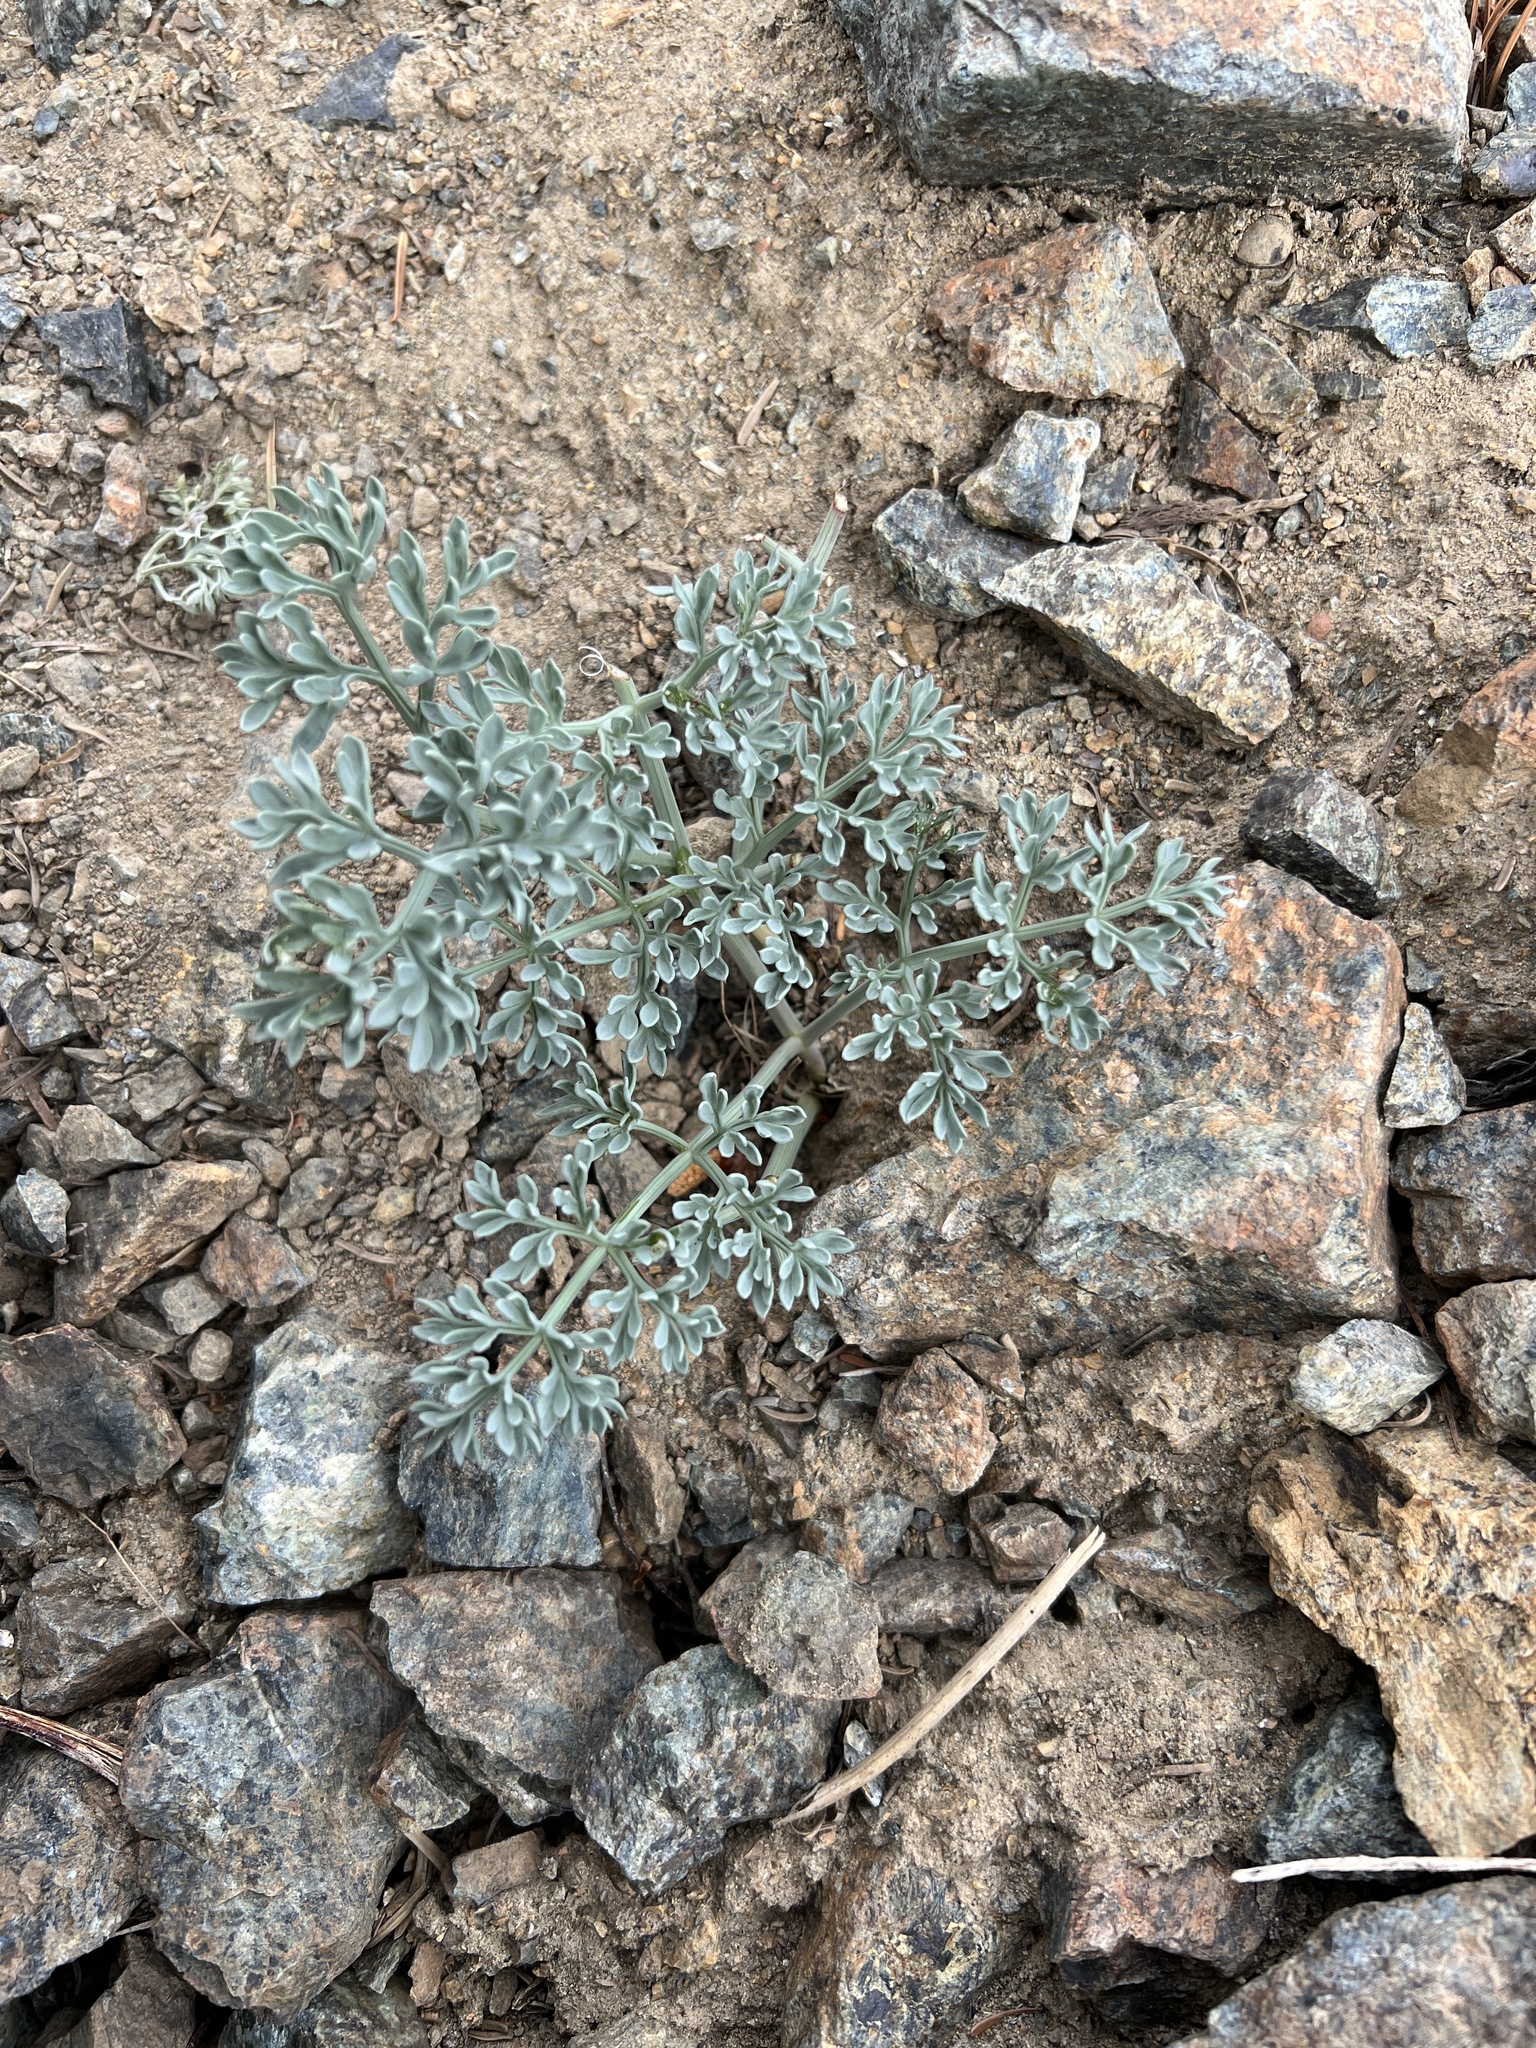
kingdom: Plantae
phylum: Tracheophyta
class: Magnoliopsida
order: Apiales
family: Apiaceae
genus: Lomatium
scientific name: Lomatium cuspidatum
